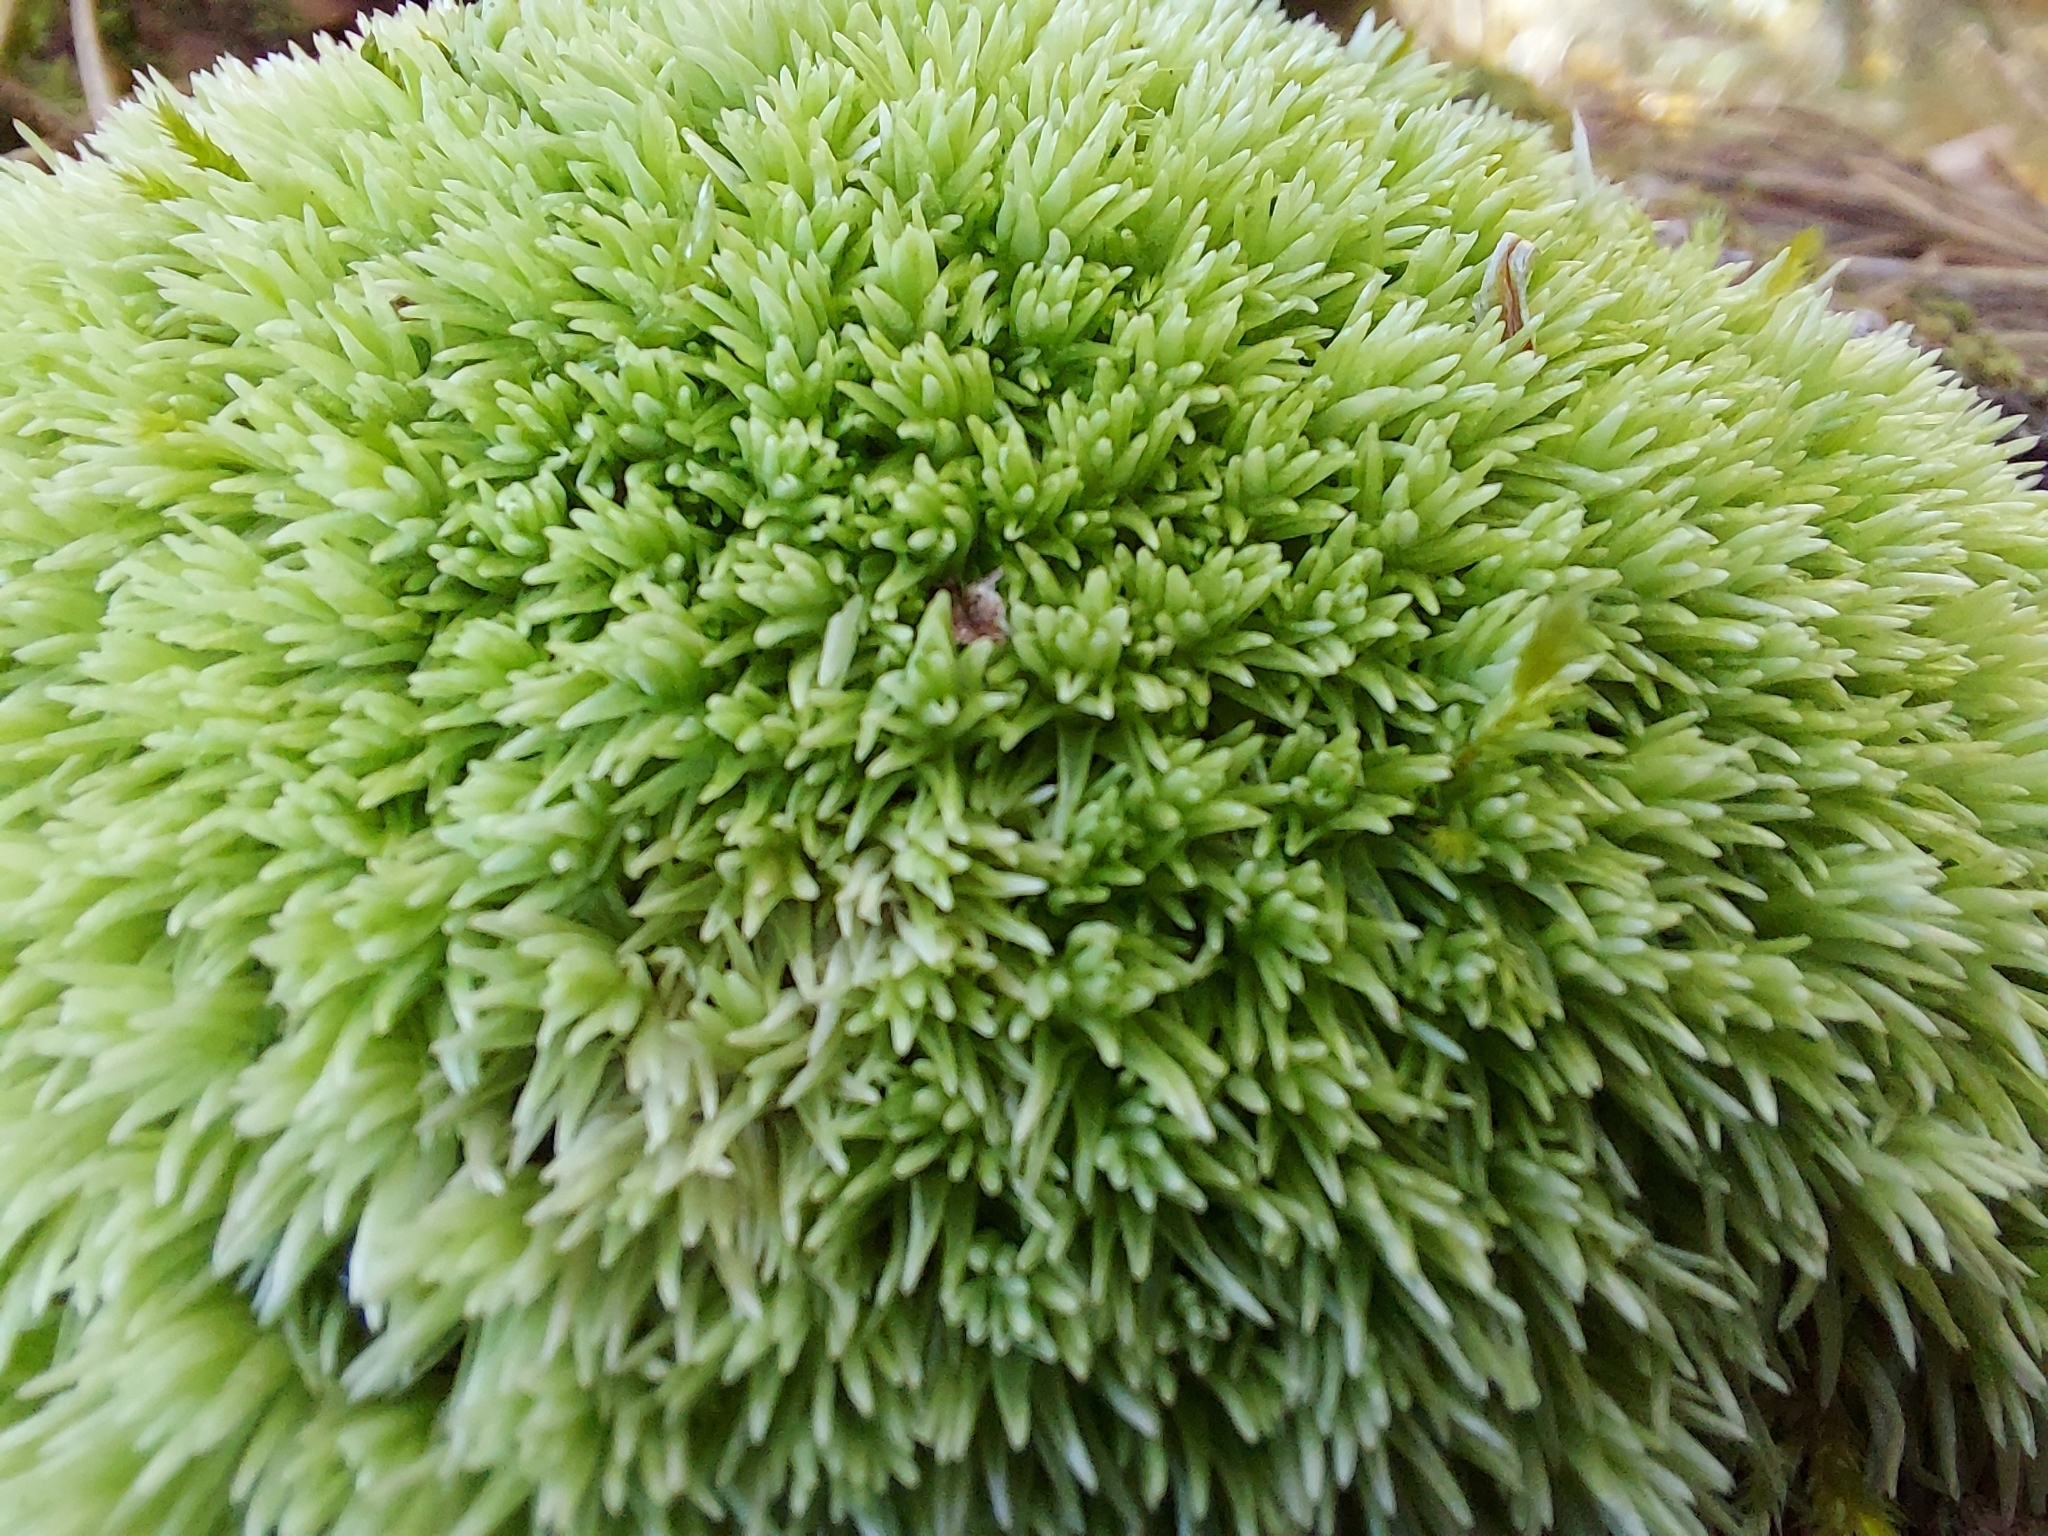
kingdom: Plantae
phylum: Bryophyta
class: Bryopsida
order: Dicranales
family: Leucobryaceae
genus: Leucobryum
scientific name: Leucobryum glaucum
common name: Large white-moss
